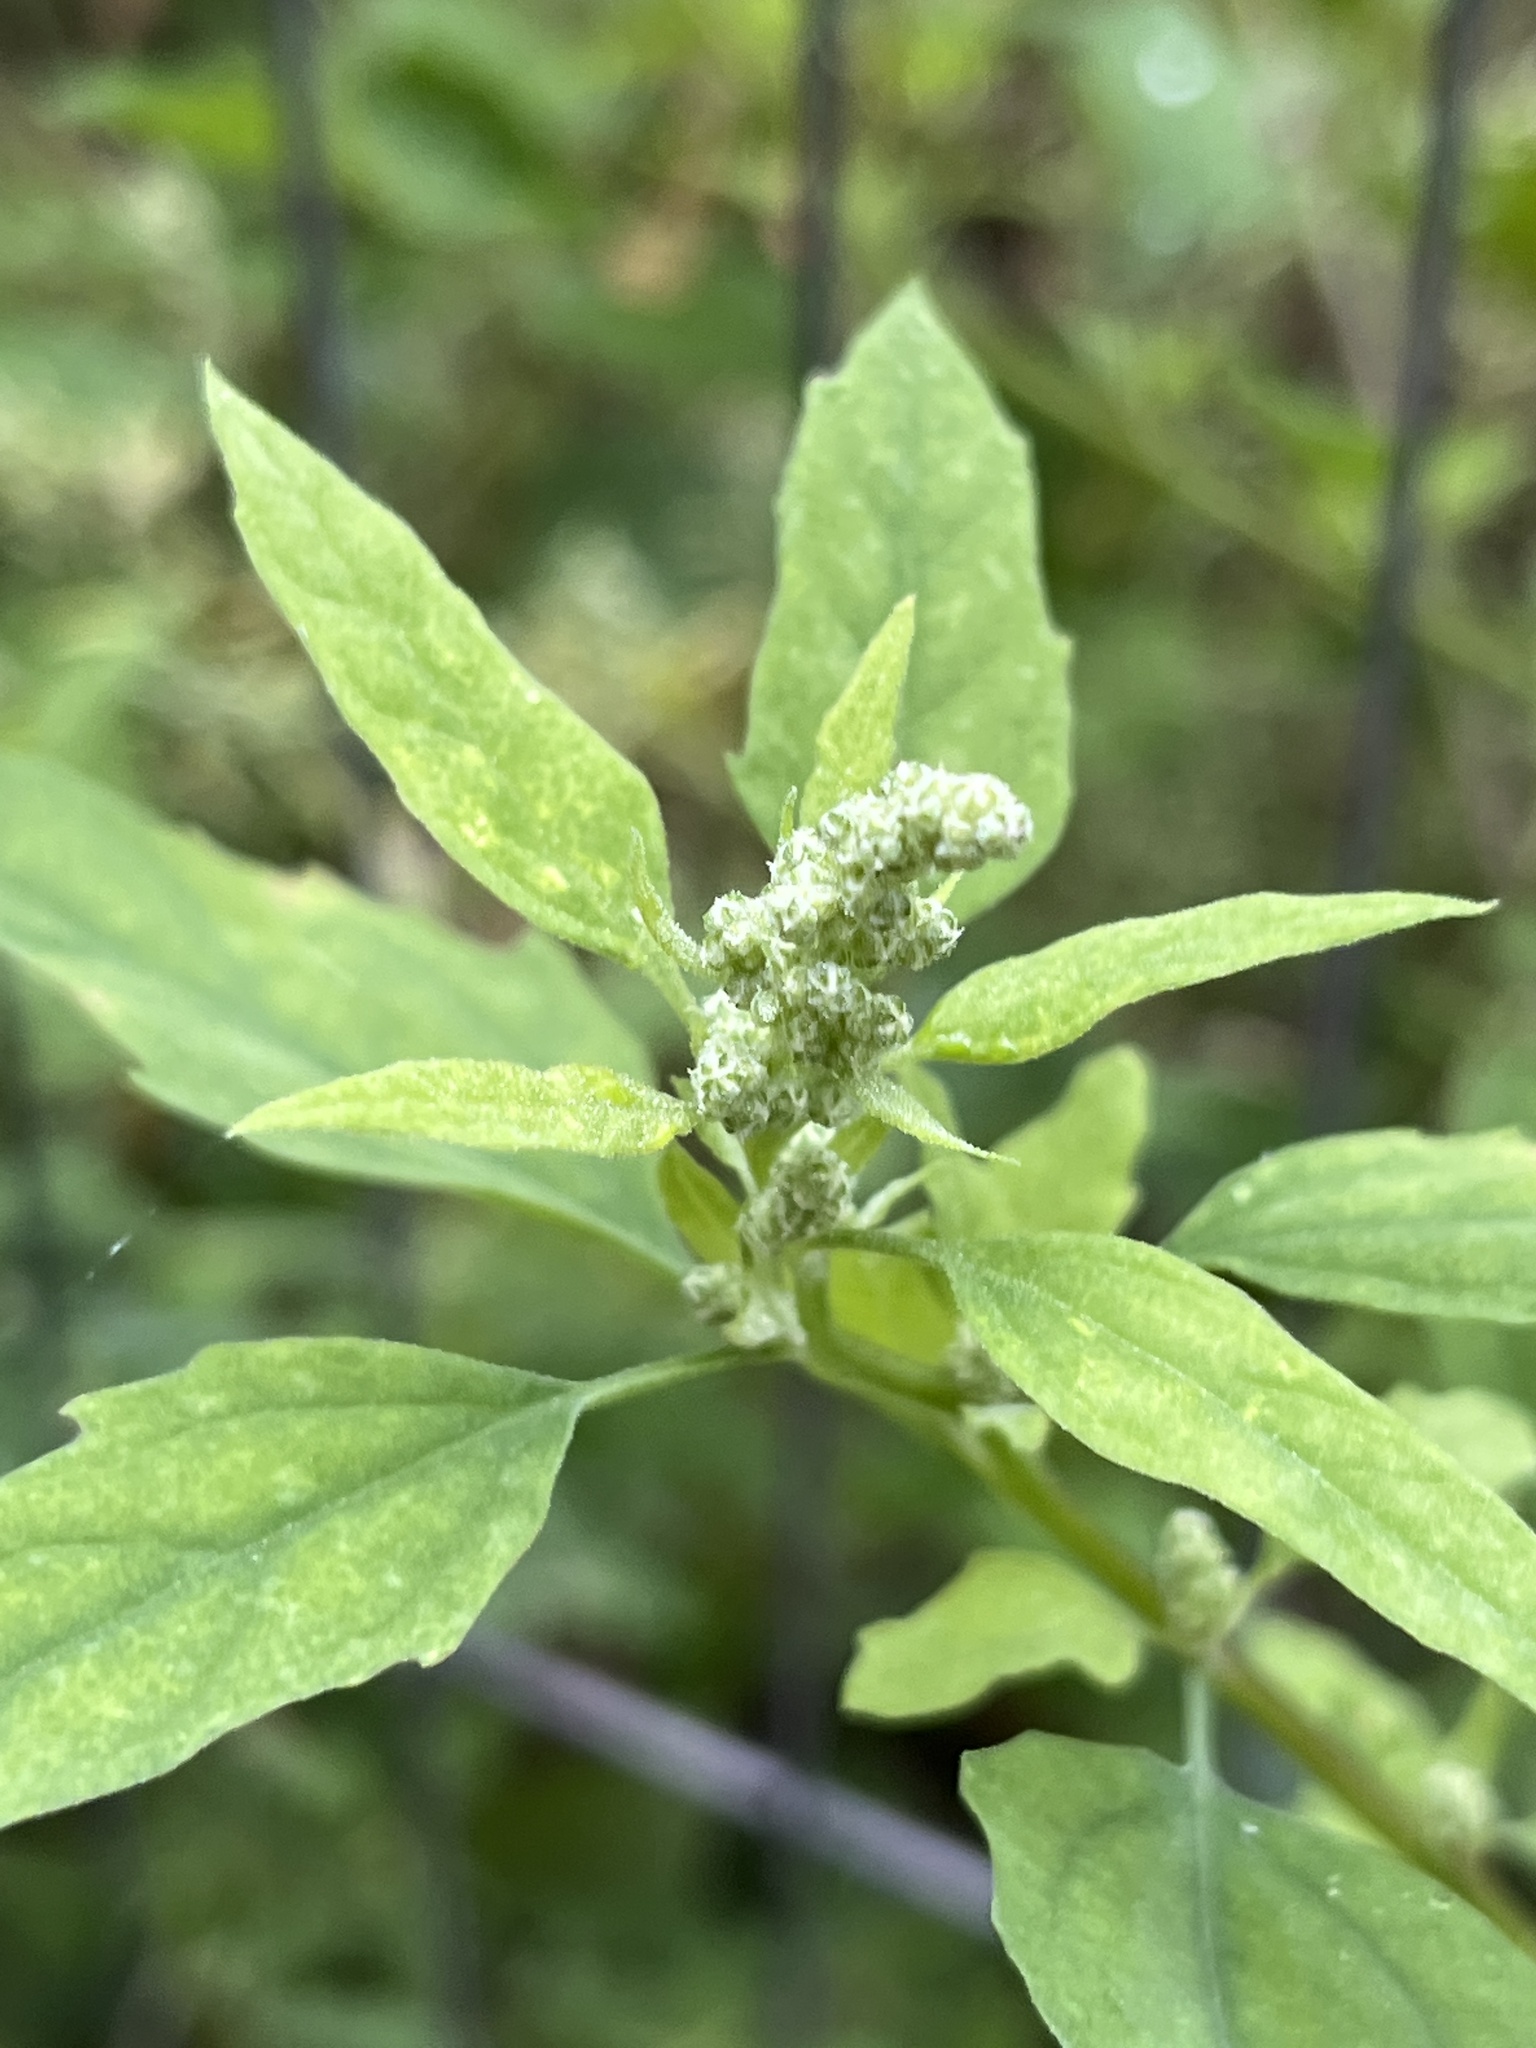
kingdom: Plantae
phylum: Tracheophyta
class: Magnoliopsida
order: Caryophyllales
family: Amaranthaceae
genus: Chenopodium
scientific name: Chenopodium album
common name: Fat-hen
